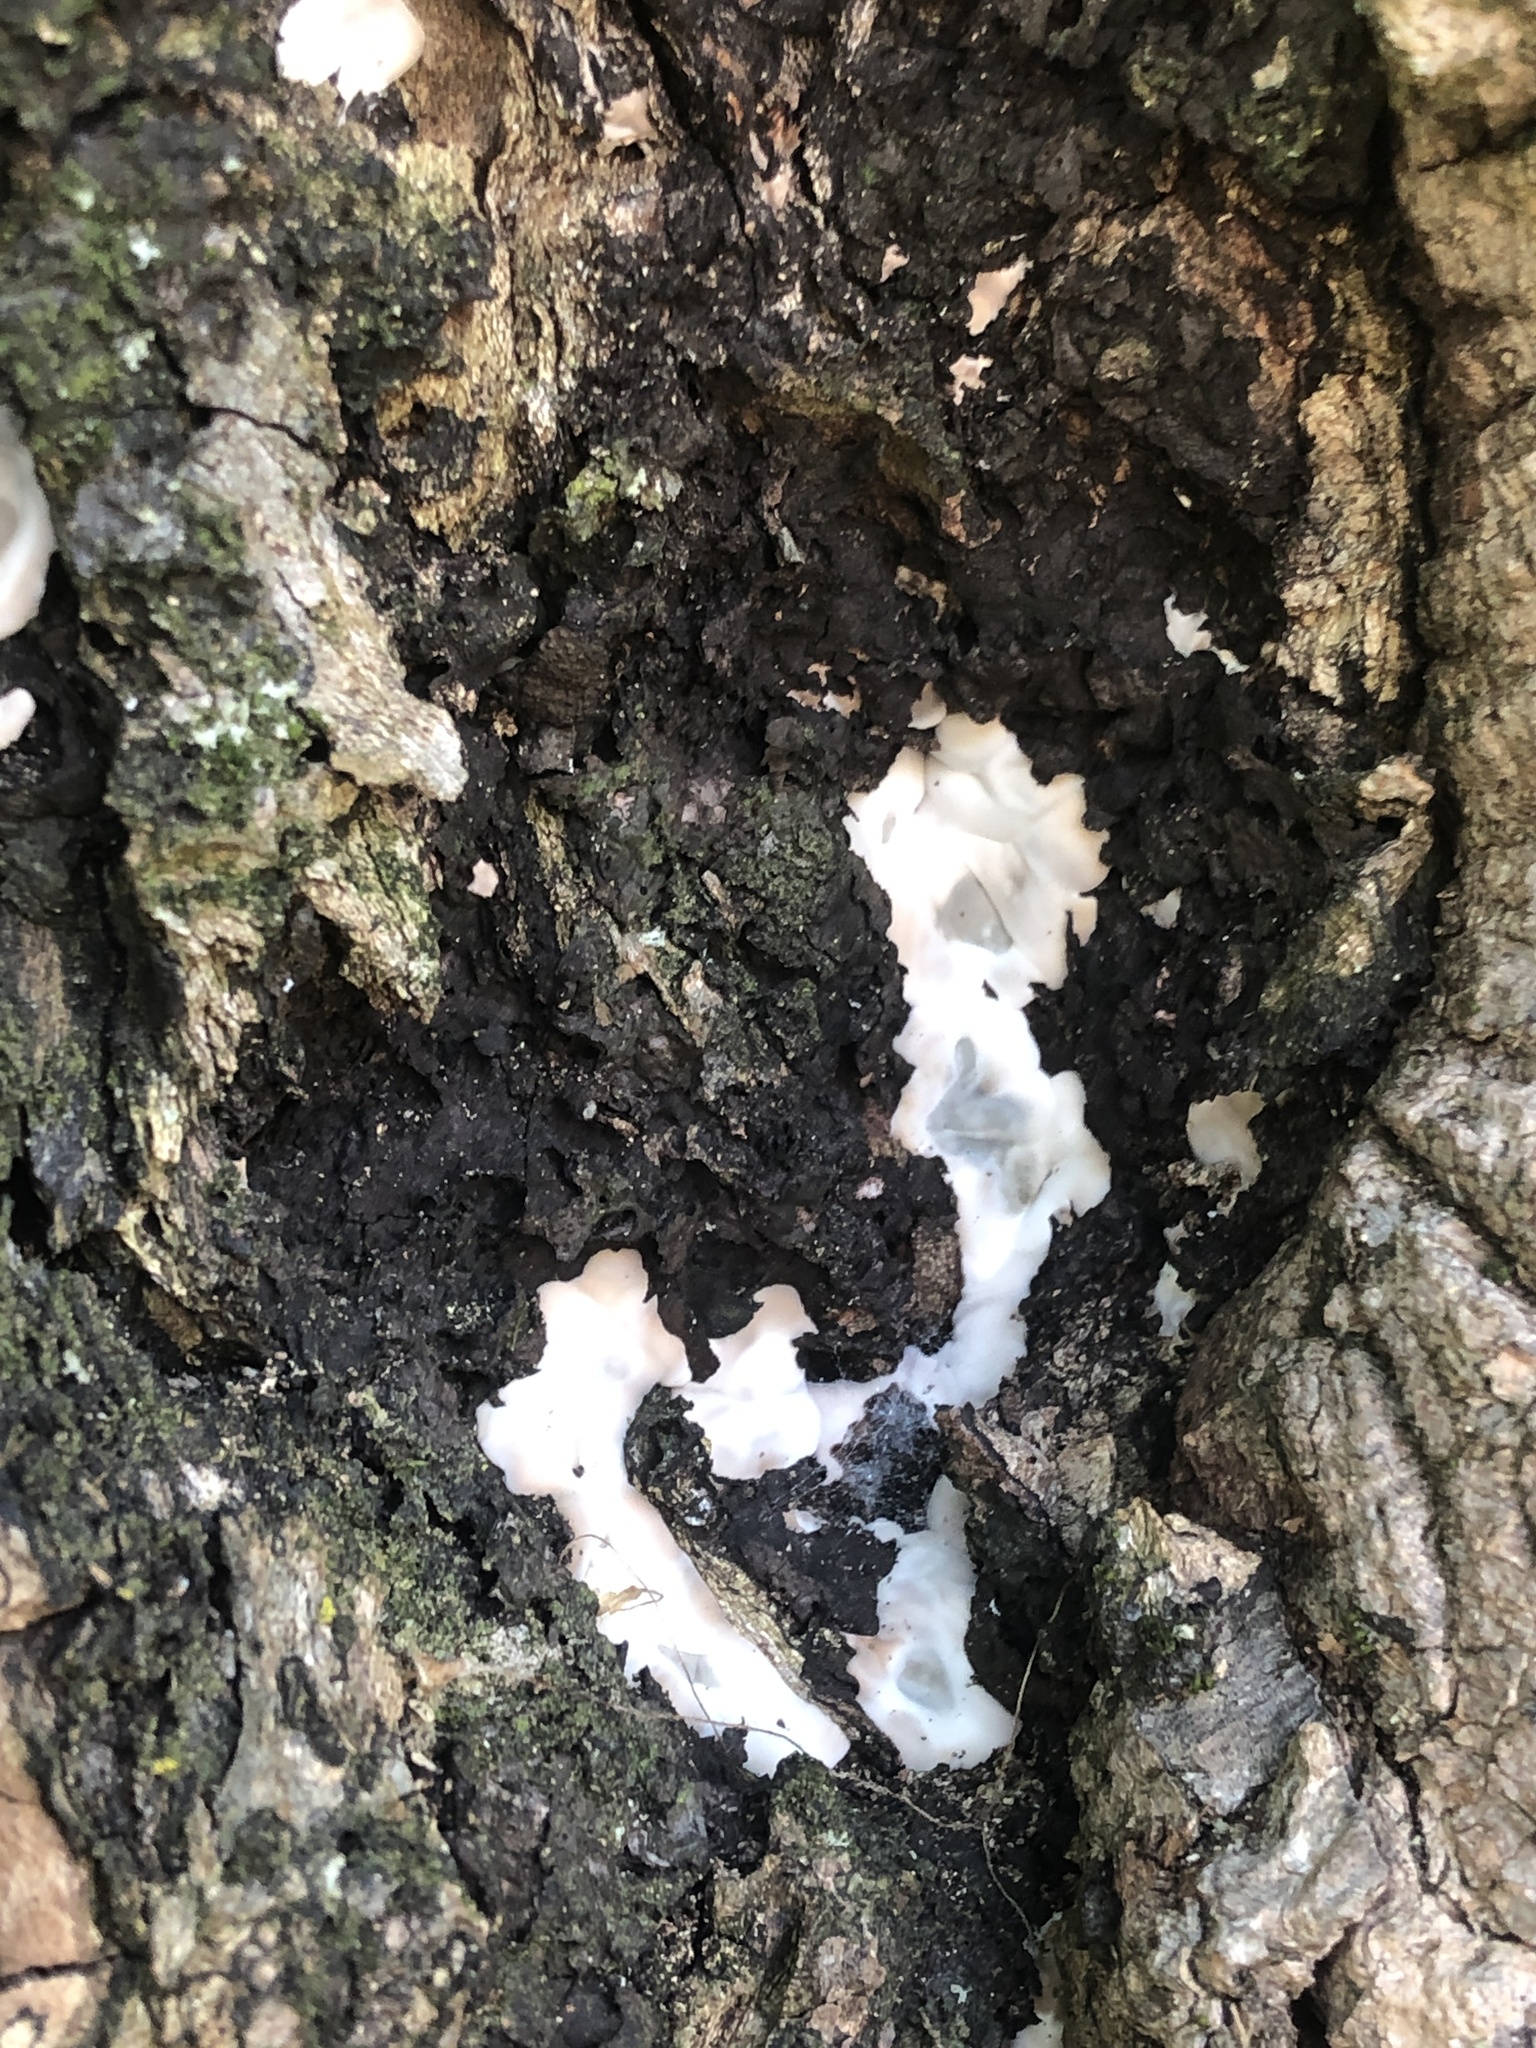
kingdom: Fungi
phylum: Ascomycota
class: Sordariomycetes
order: Xylariales
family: Xylariaceae
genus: Kretzschmaria
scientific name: Kretzschmaria deusta
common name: Brittle cinder
